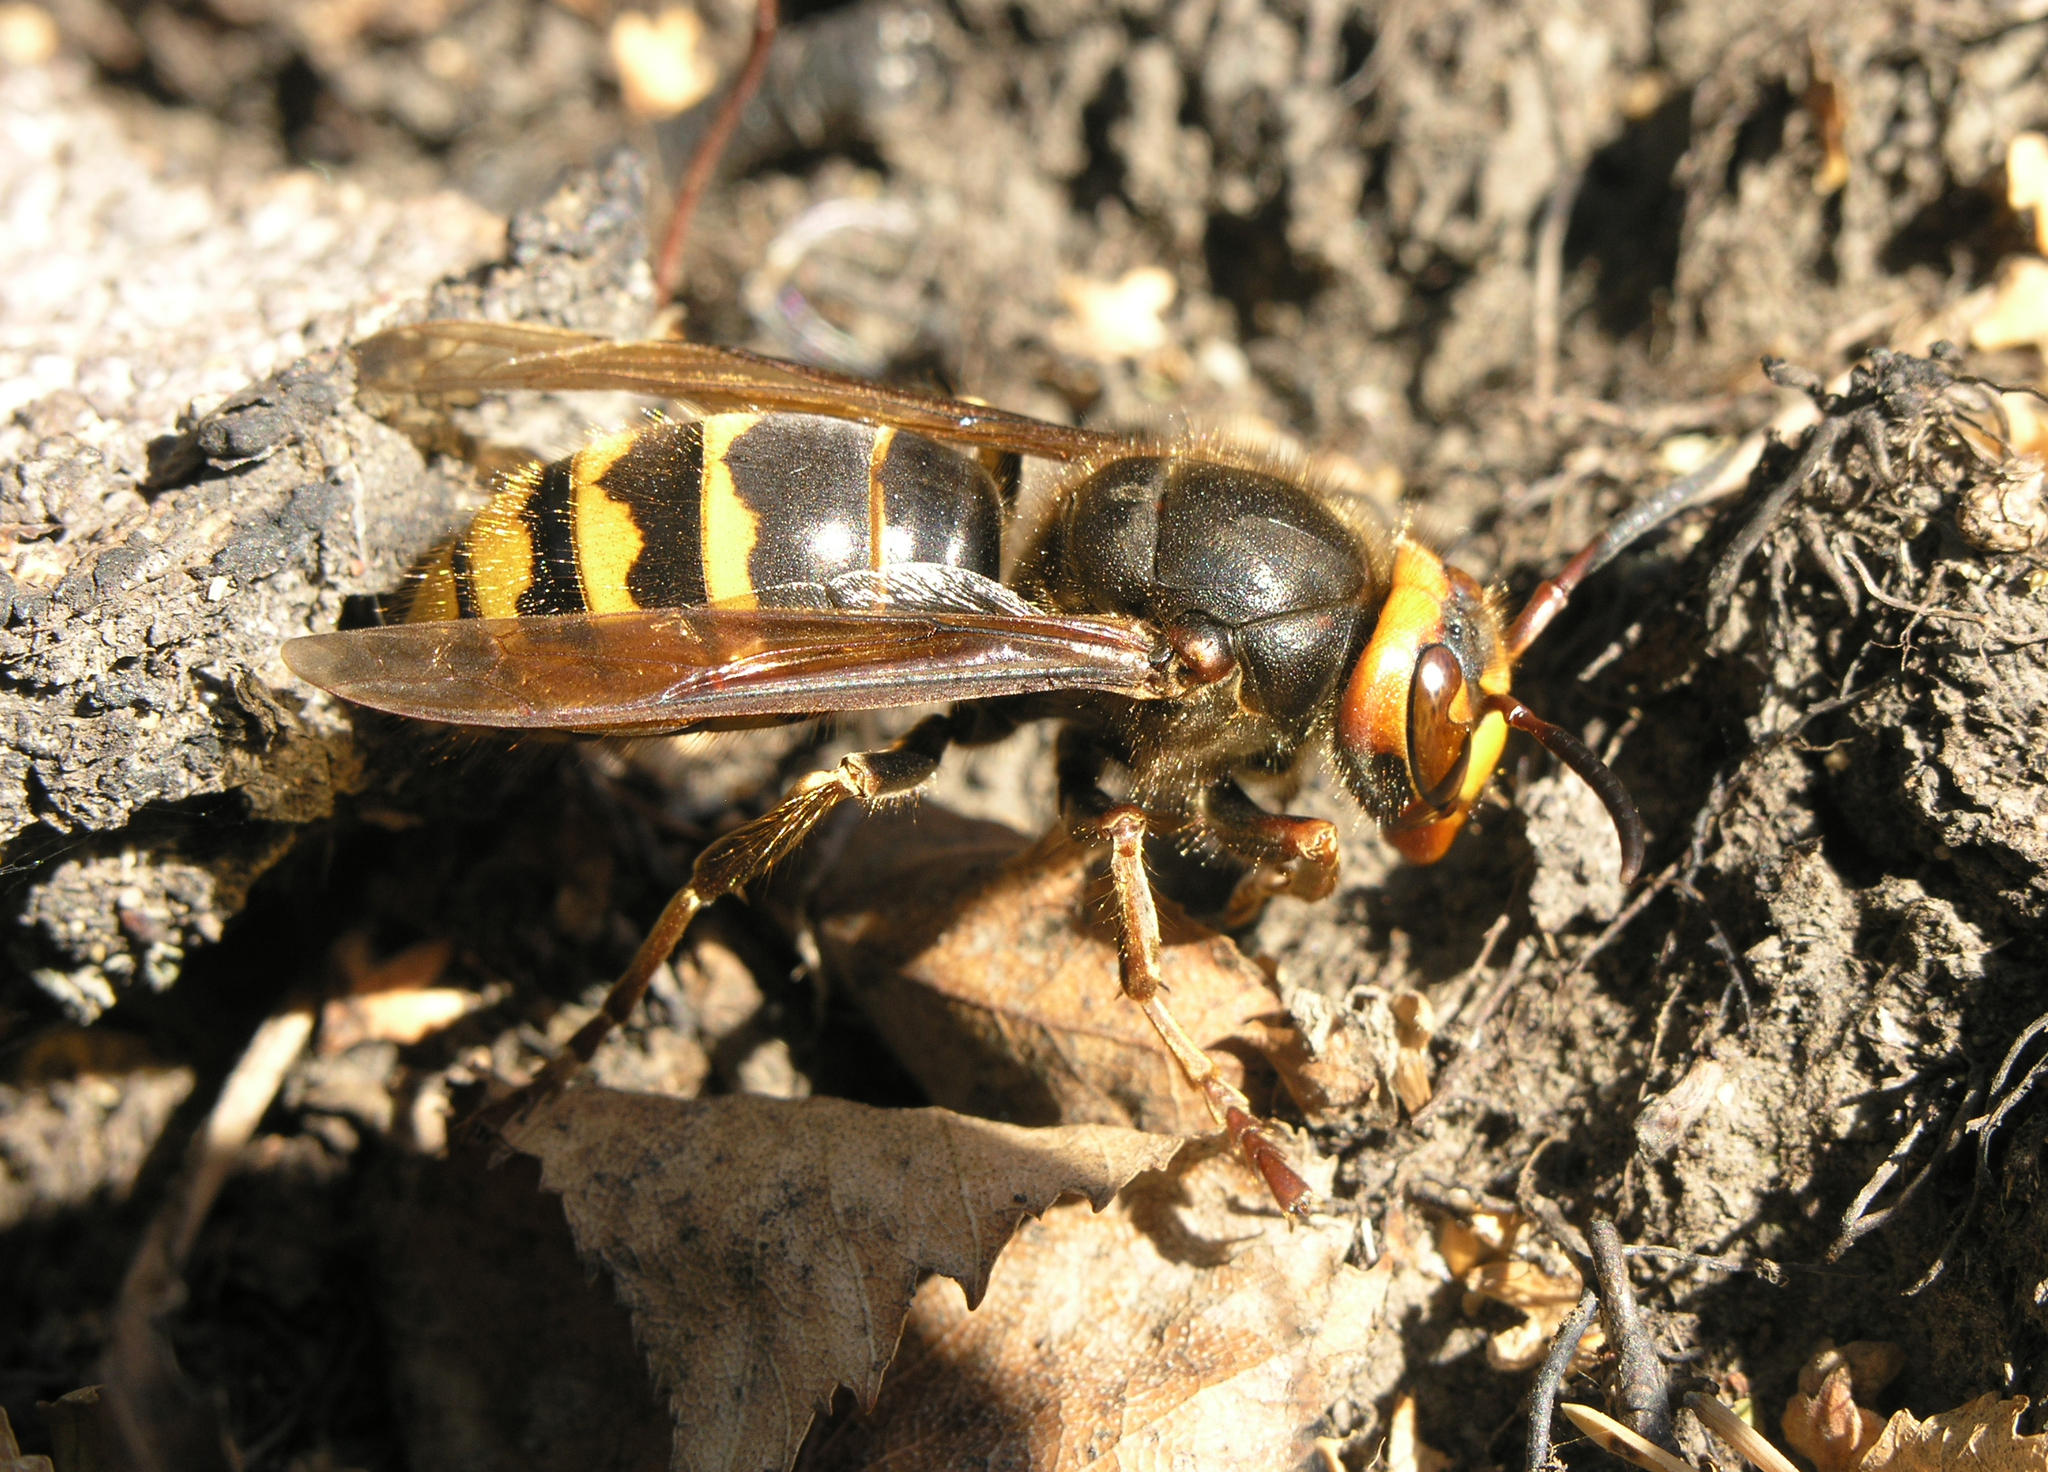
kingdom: Animalia
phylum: Arthropoda
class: Insecta
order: Hymenoptera
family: Vespidae
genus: Vespa
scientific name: Vespa crabro
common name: Hornet
